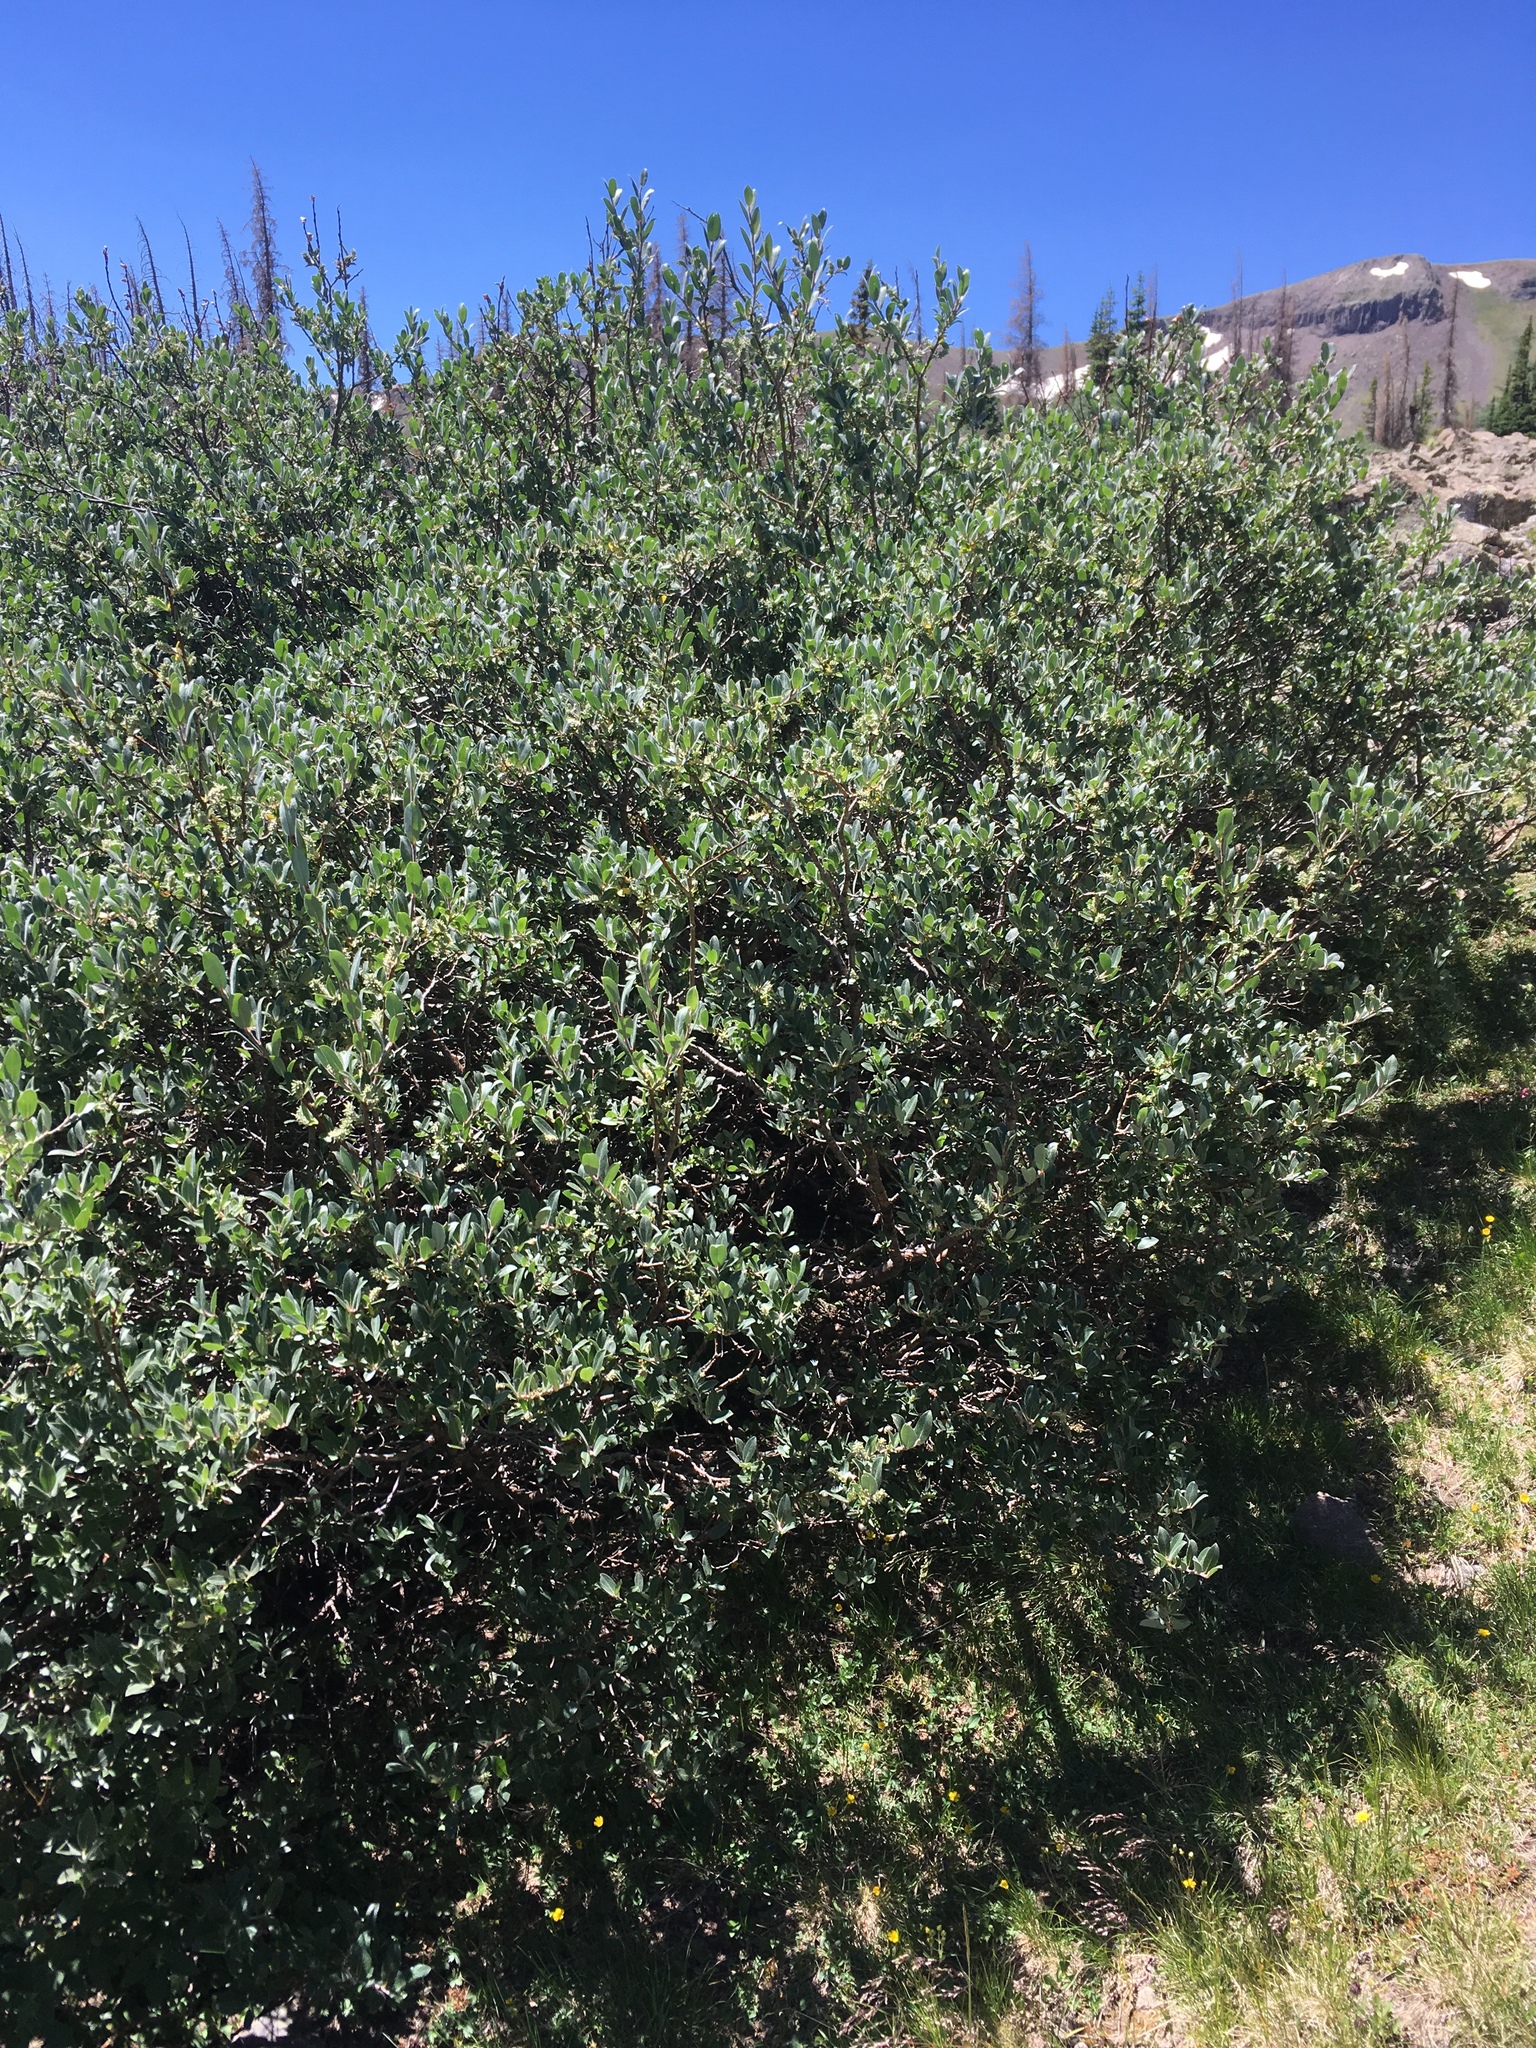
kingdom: Plantae
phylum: Tracheophyta
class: Magnoliopsida
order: Malpighiales
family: Salicaceae
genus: Salix
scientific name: Salix wolfii
